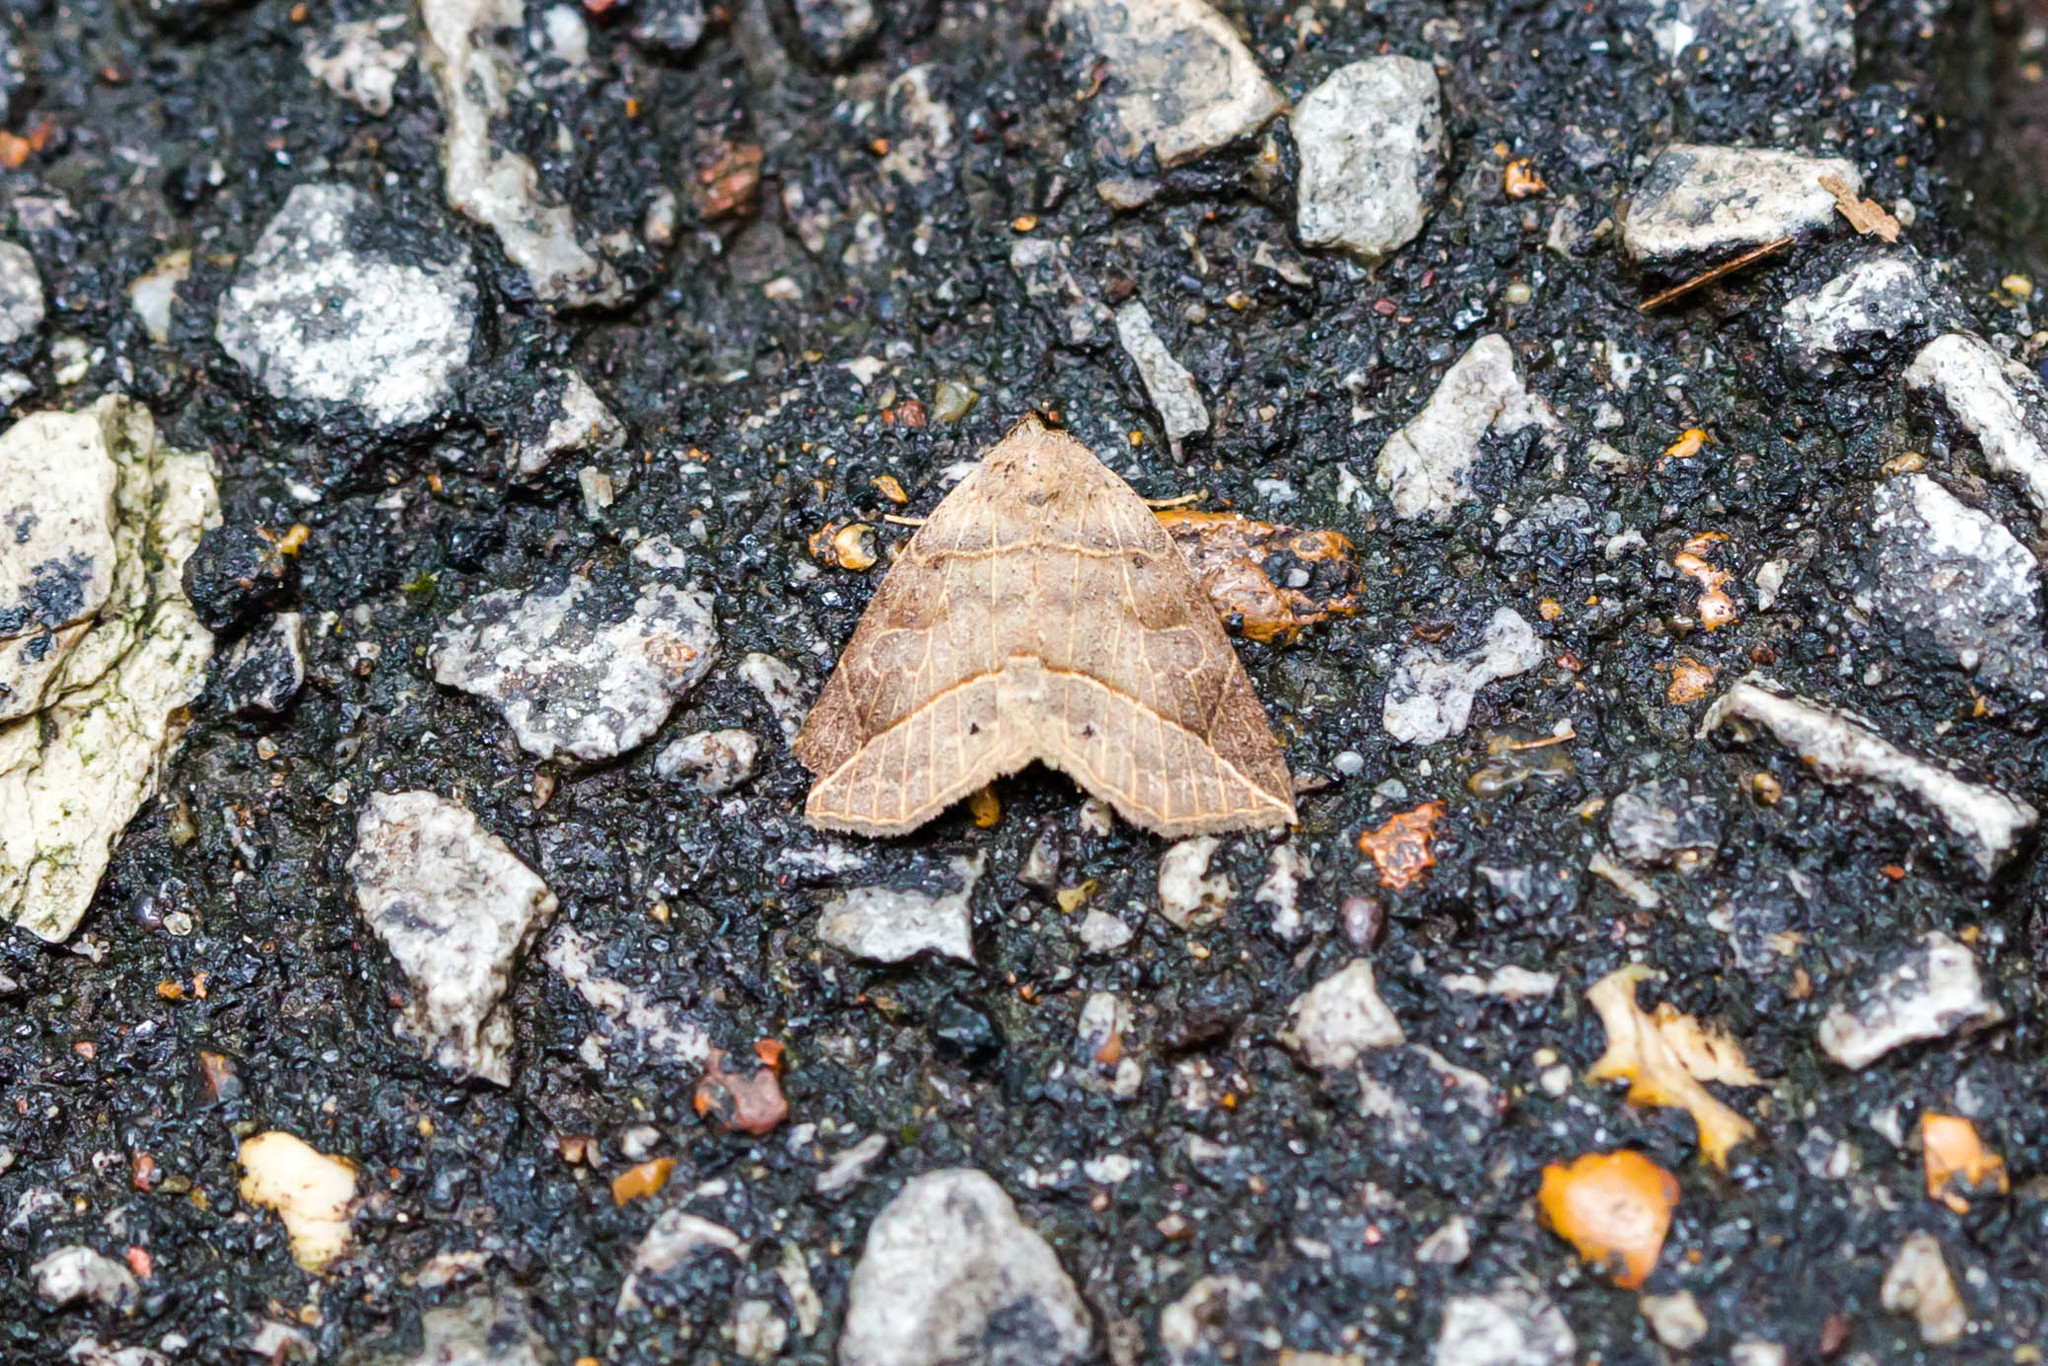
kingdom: Animalia
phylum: Arthropoda
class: Insecta
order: Lepidoptera
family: Erebidae
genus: Isogona
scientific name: Isogona tenuis
